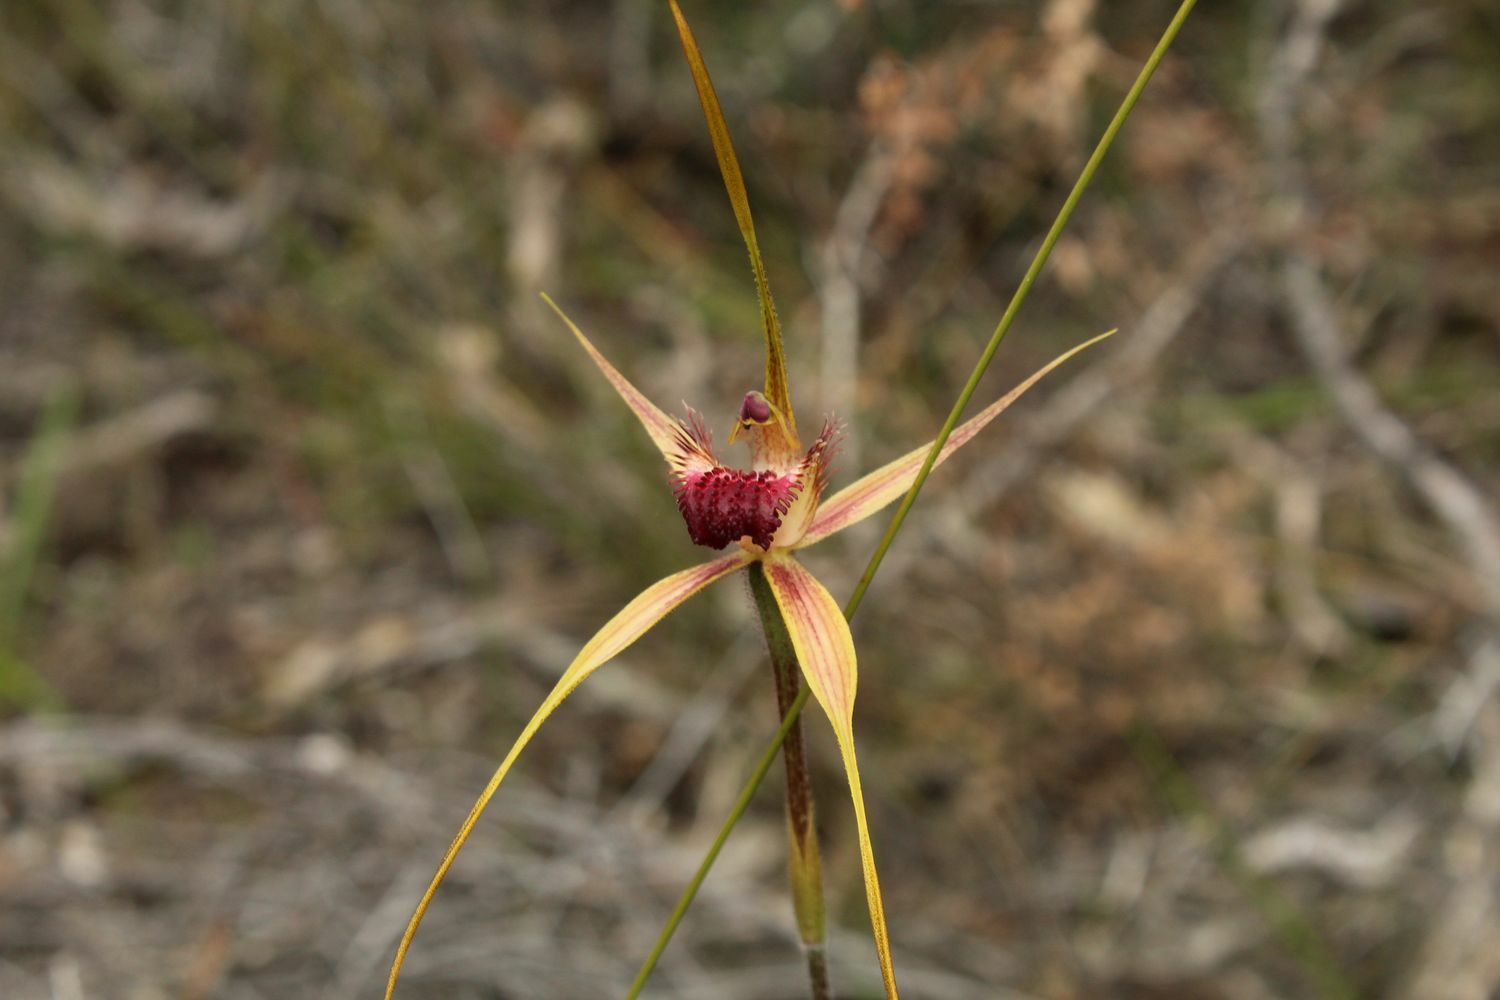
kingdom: Plantae
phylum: Tracheophyta
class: Liliopsida
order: Asparagales
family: Orchidaceae
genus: Caladenia
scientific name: Caladenia pectinata
